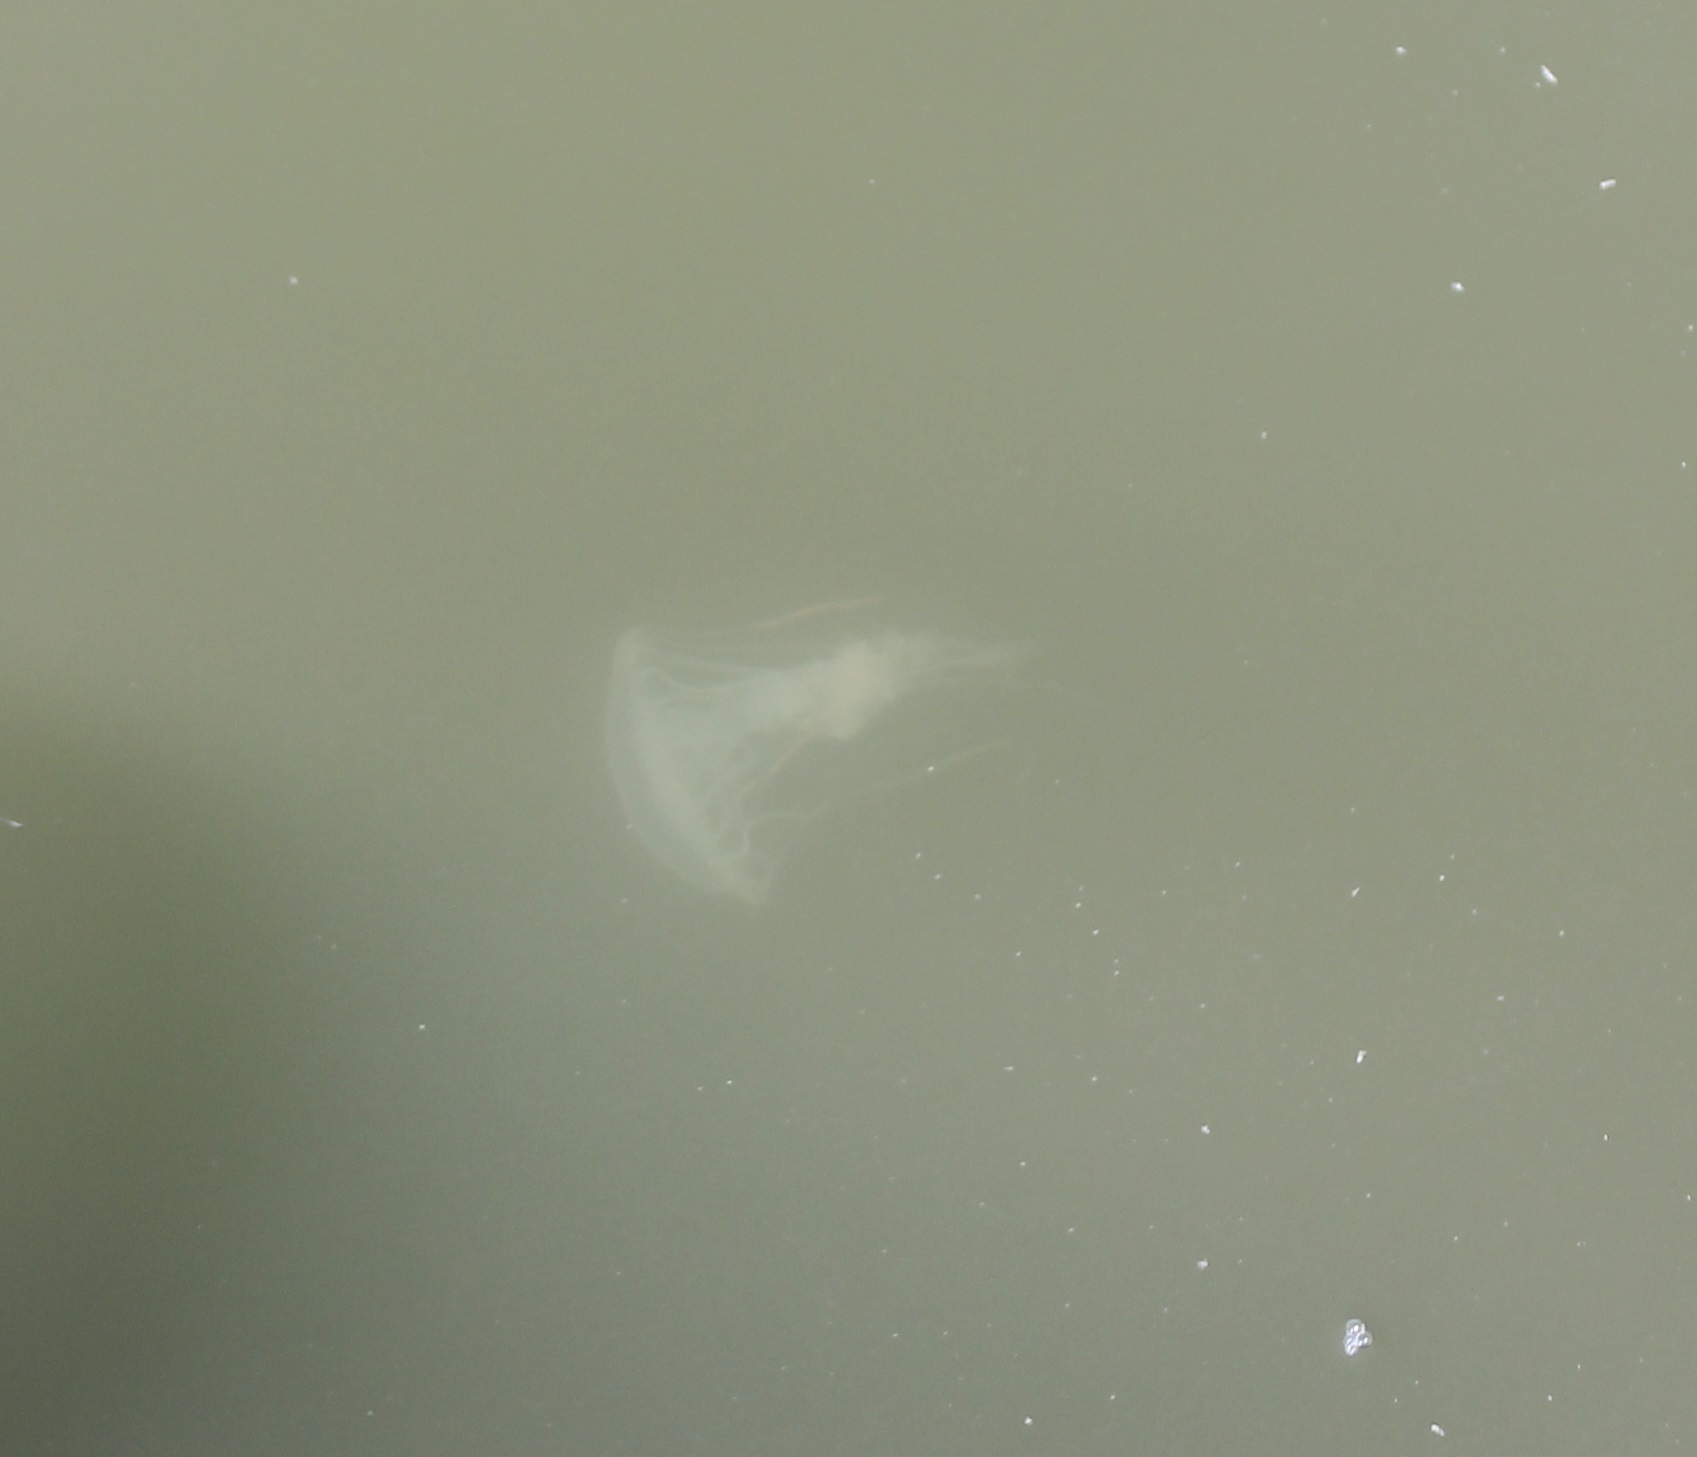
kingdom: Animalia
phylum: Cnidaria
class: Scyphozoa
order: Semaeostomeae
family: Pelagiidae
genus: Chrysaora
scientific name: Chrysaora chesapeakei
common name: Bay nettle
